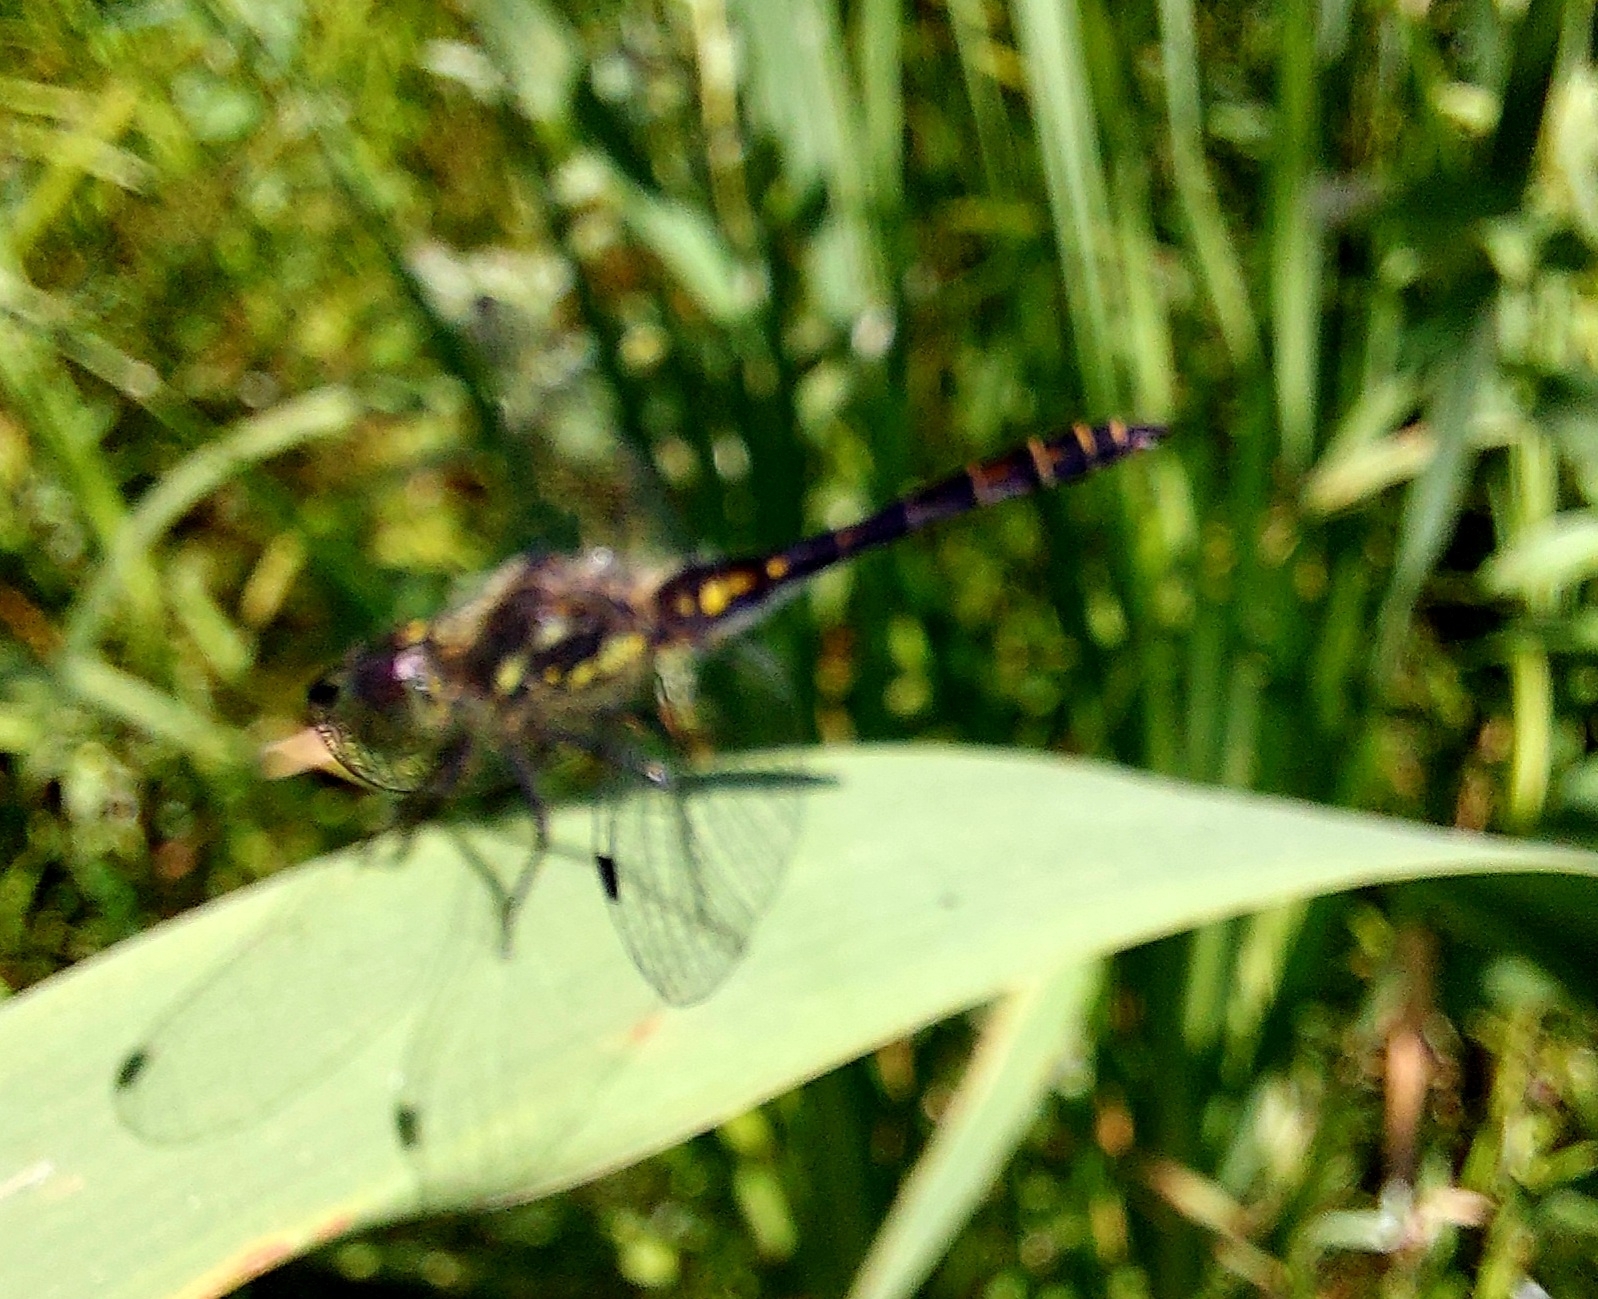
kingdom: Animalia
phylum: Arthropoda
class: Insecta
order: Odonata
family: Libellulidae
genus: Sympetrum
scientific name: Sympetrum danae
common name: Black darter
